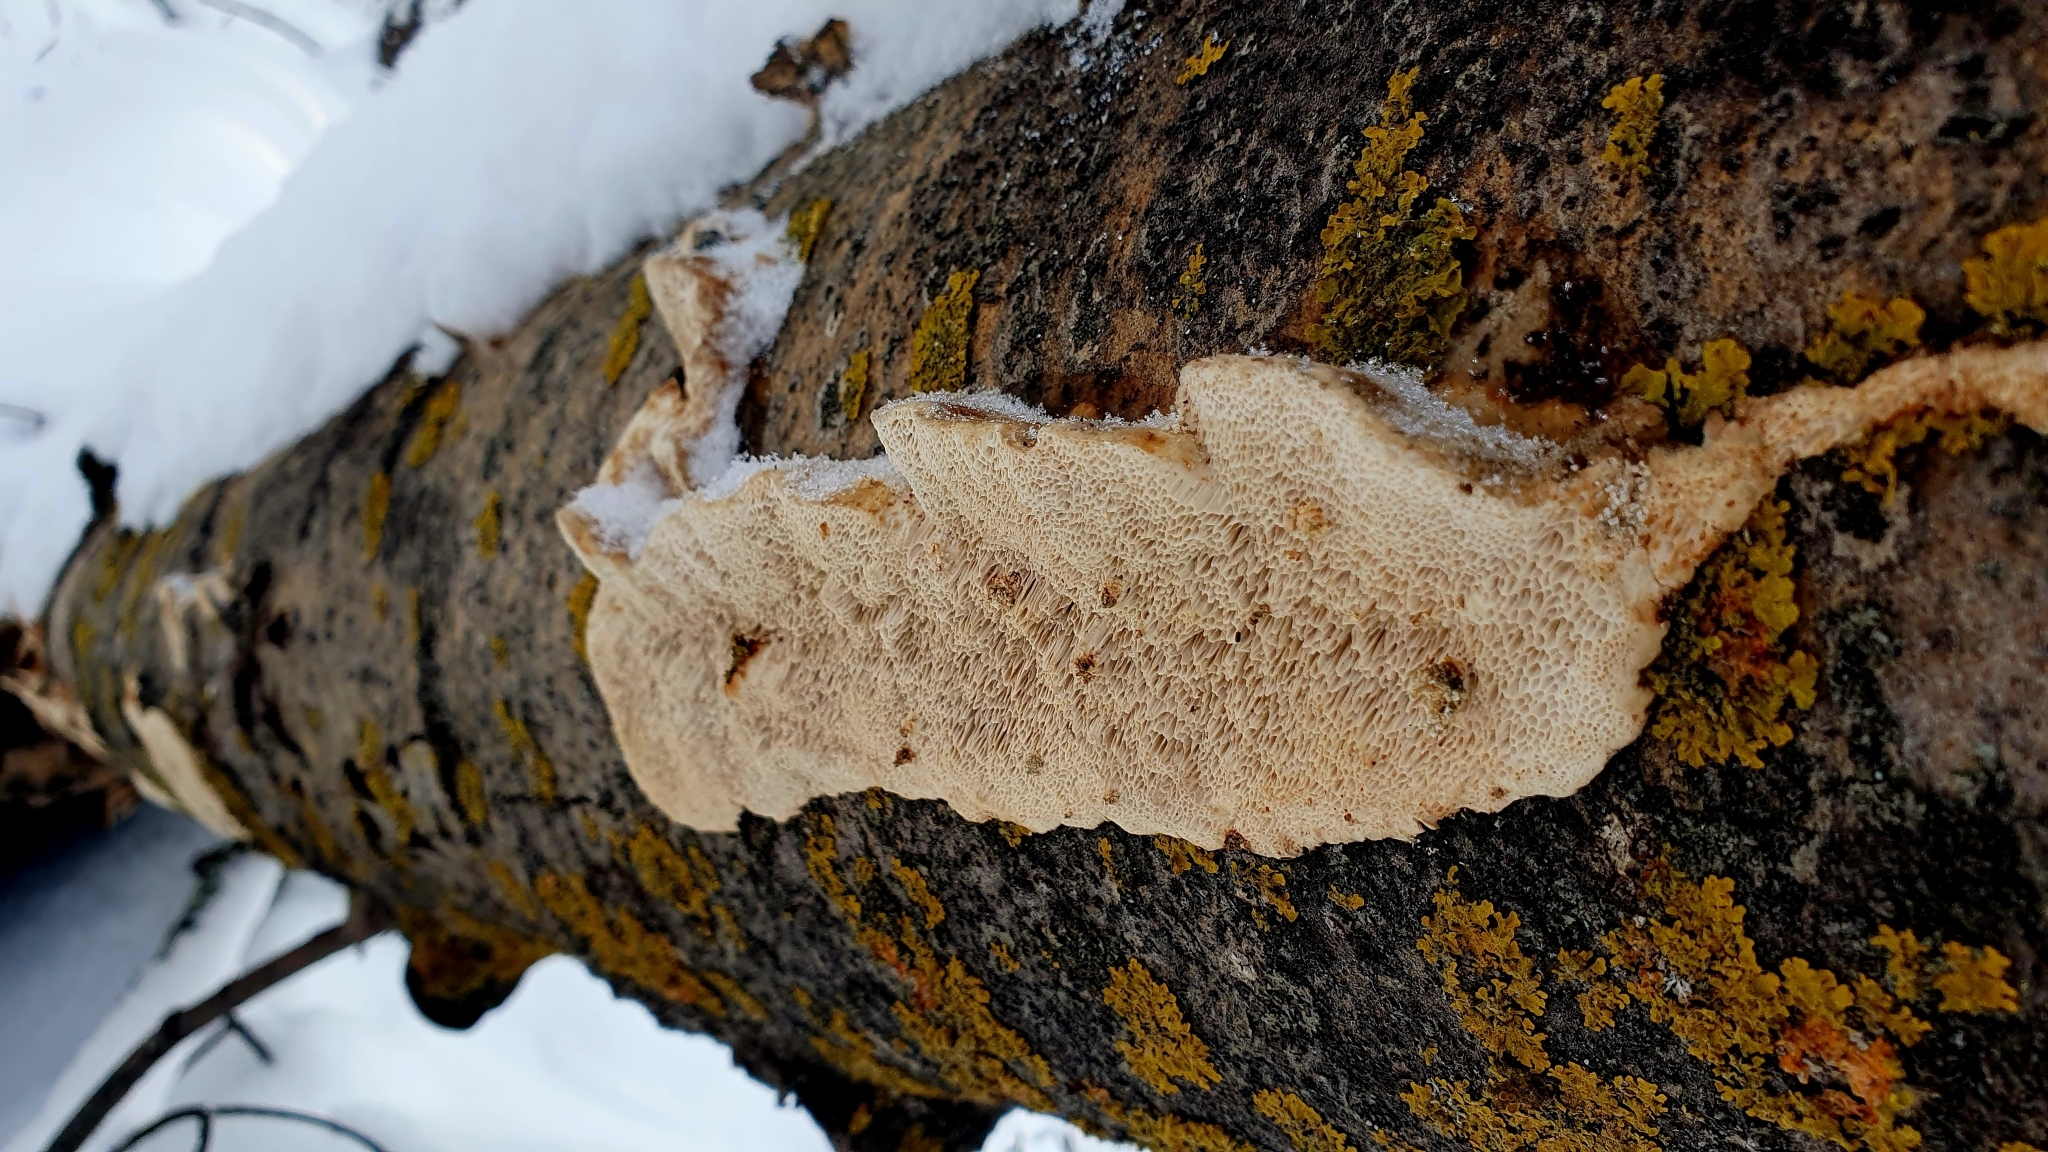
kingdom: Fungi
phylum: Basidiomycota
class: Agaricomycetes
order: Polyporales
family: Polyporaceae
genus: Trametes
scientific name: Trametes trogii
